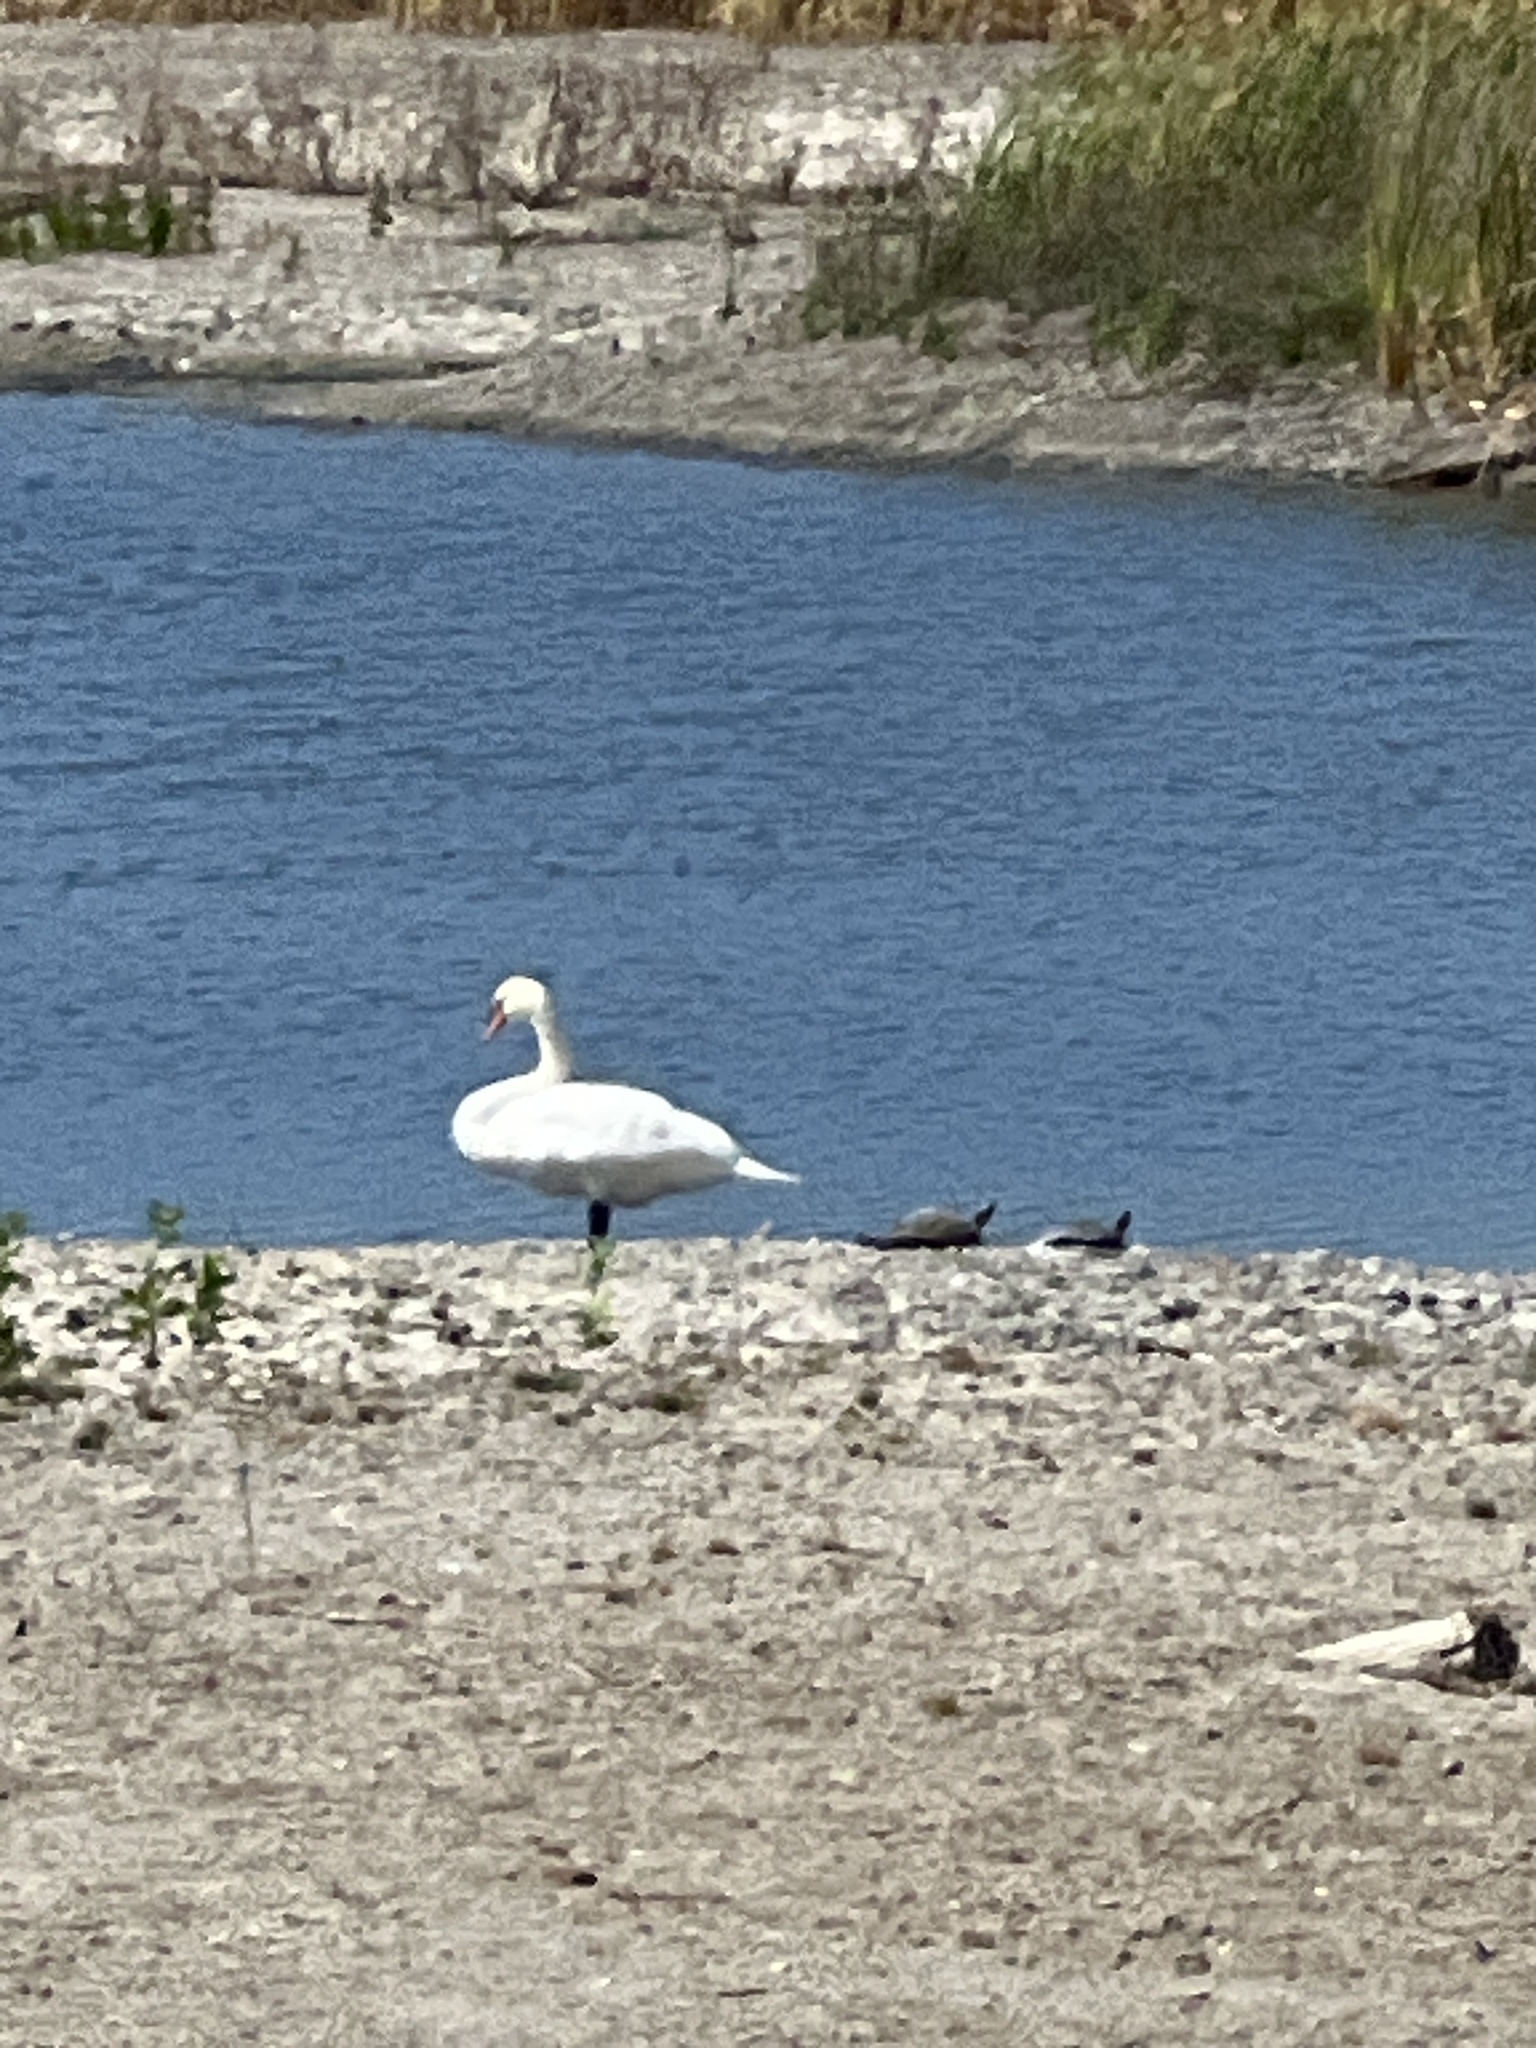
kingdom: Animalia
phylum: Chordata
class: Aves
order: Anseriformes
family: Anatidae
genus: Cygnus
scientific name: Cygnus olor
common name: Mute swan
